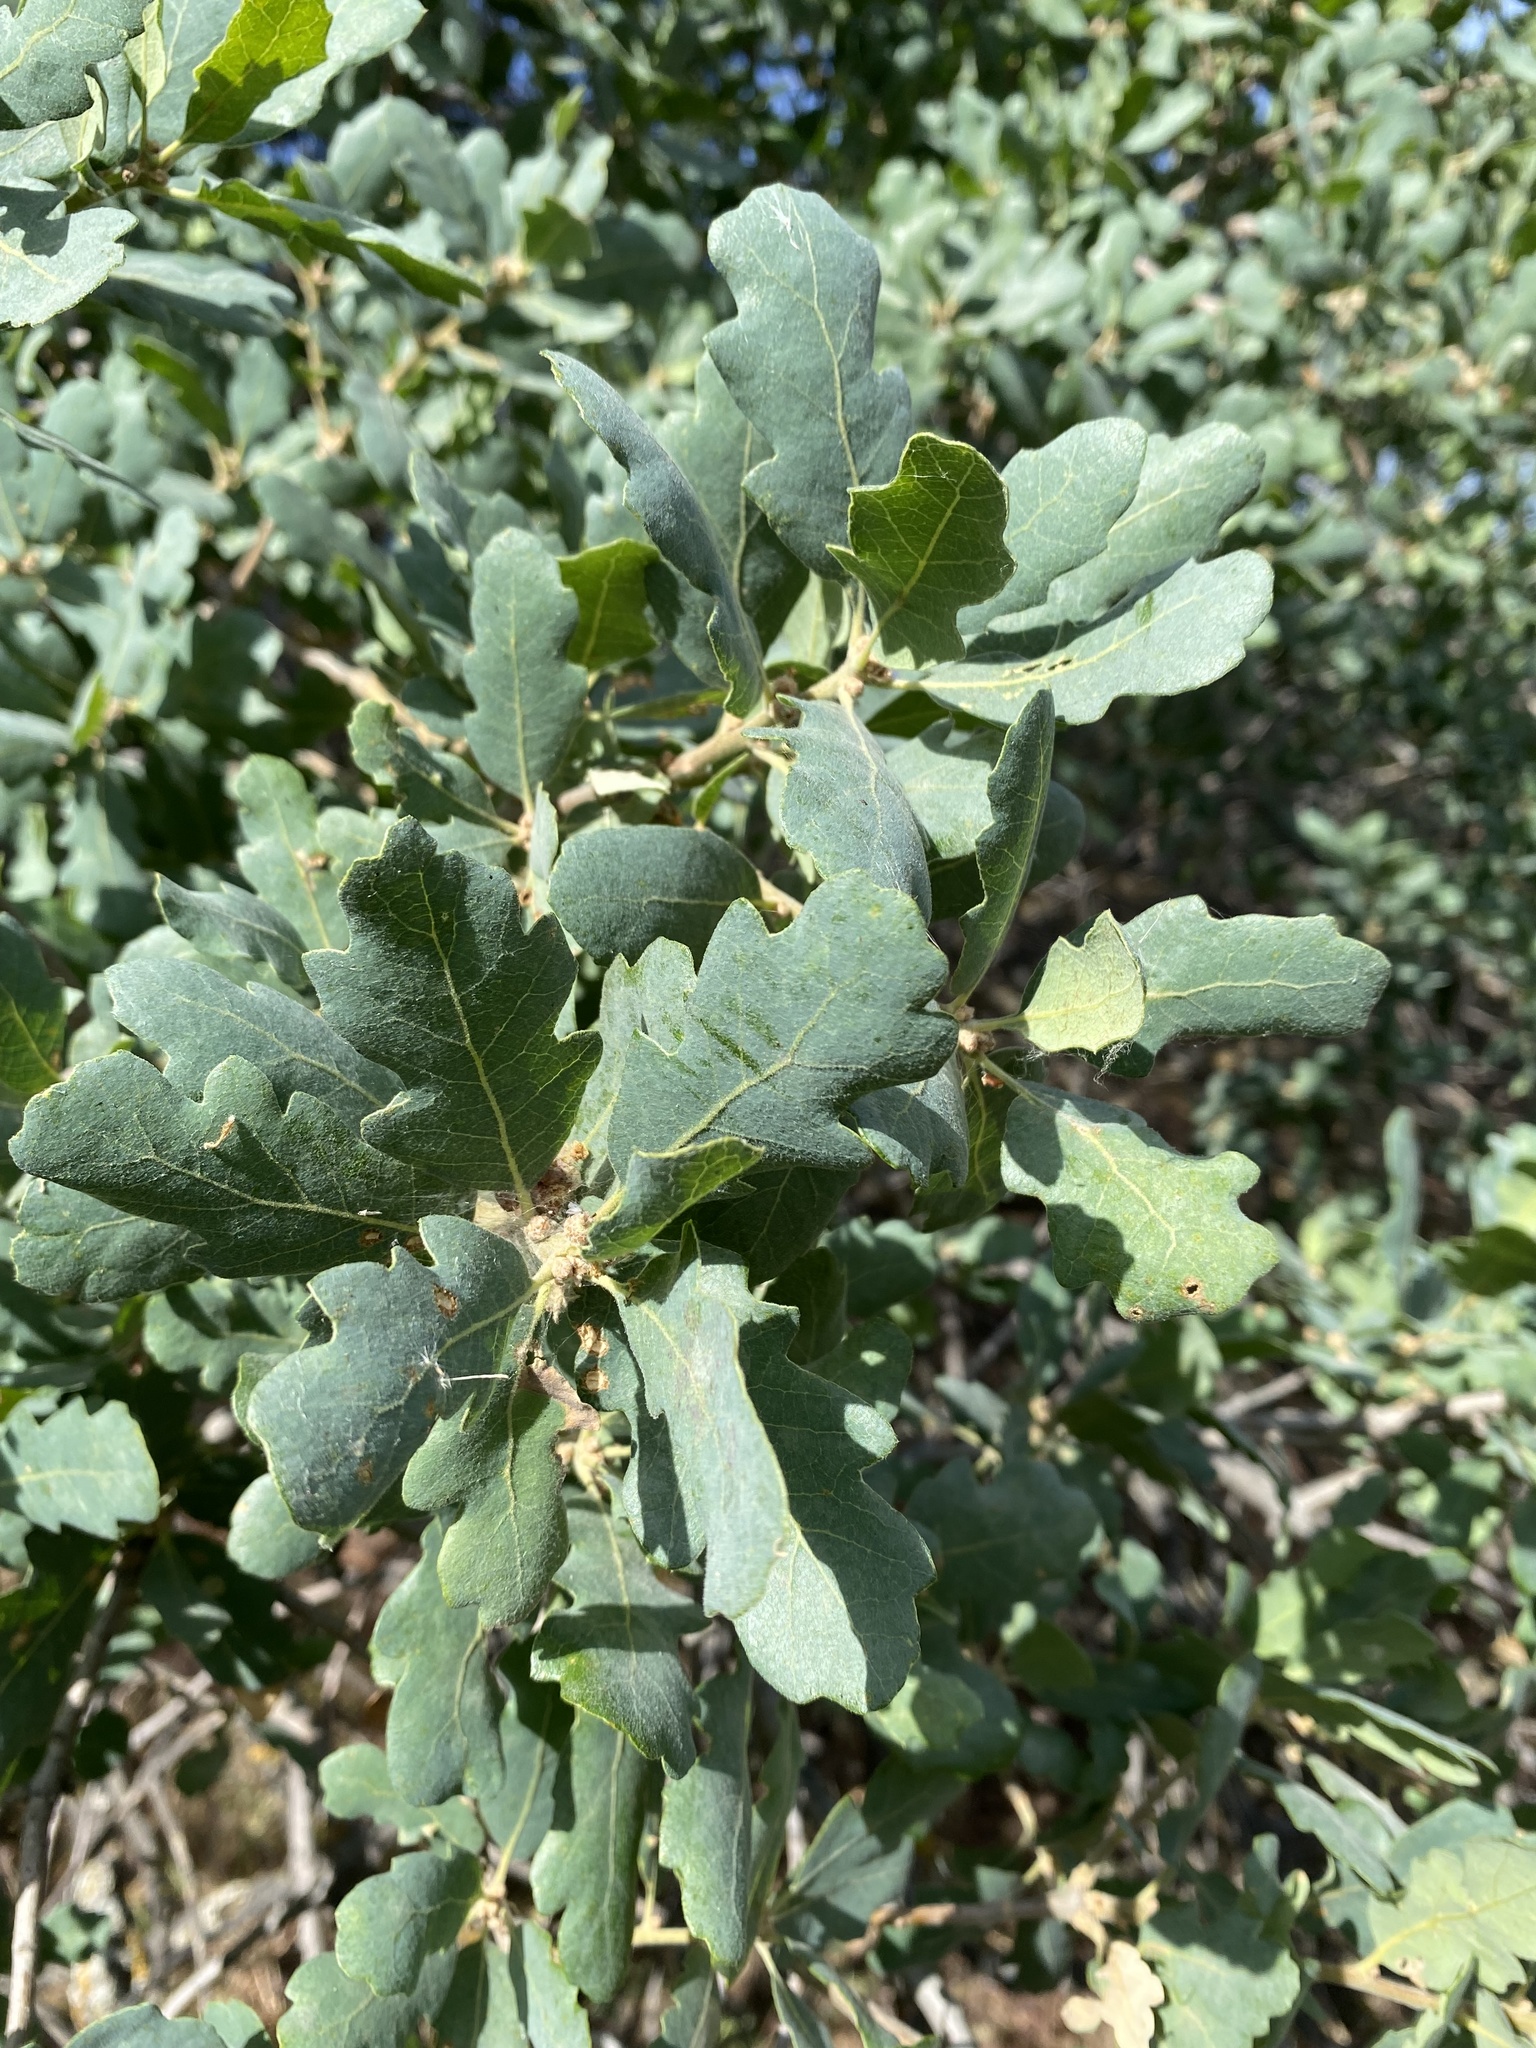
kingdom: Plantae
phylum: Tracheophyta
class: Magnoliopsida
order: Fagales
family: Fagaceae
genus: Quercus
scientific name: Quercus douglasii
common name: Blue oak
